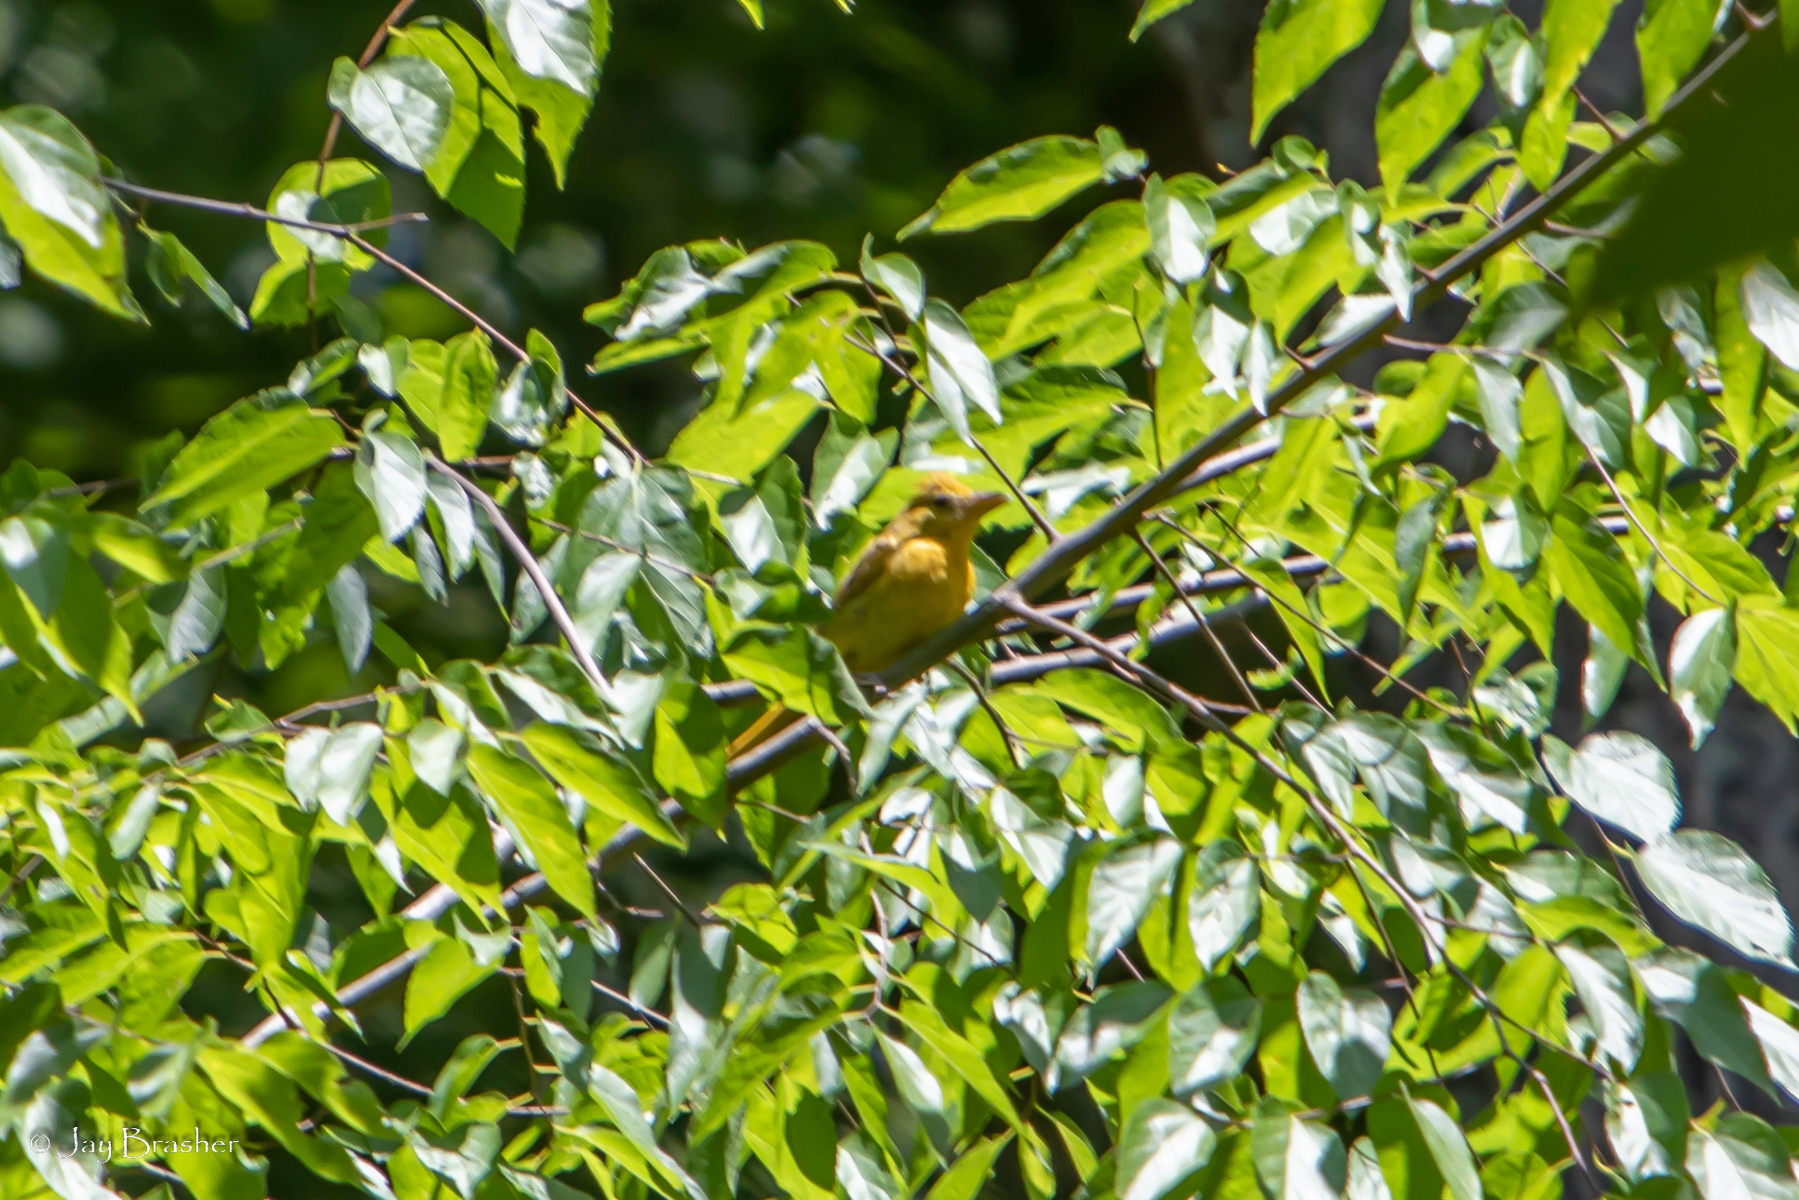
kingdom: Animalia
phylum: Chordata
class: Aves
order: Passeriformes
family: Cardinalidae
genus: Piranga
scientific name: Piranga rubra
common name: Summer tanager
